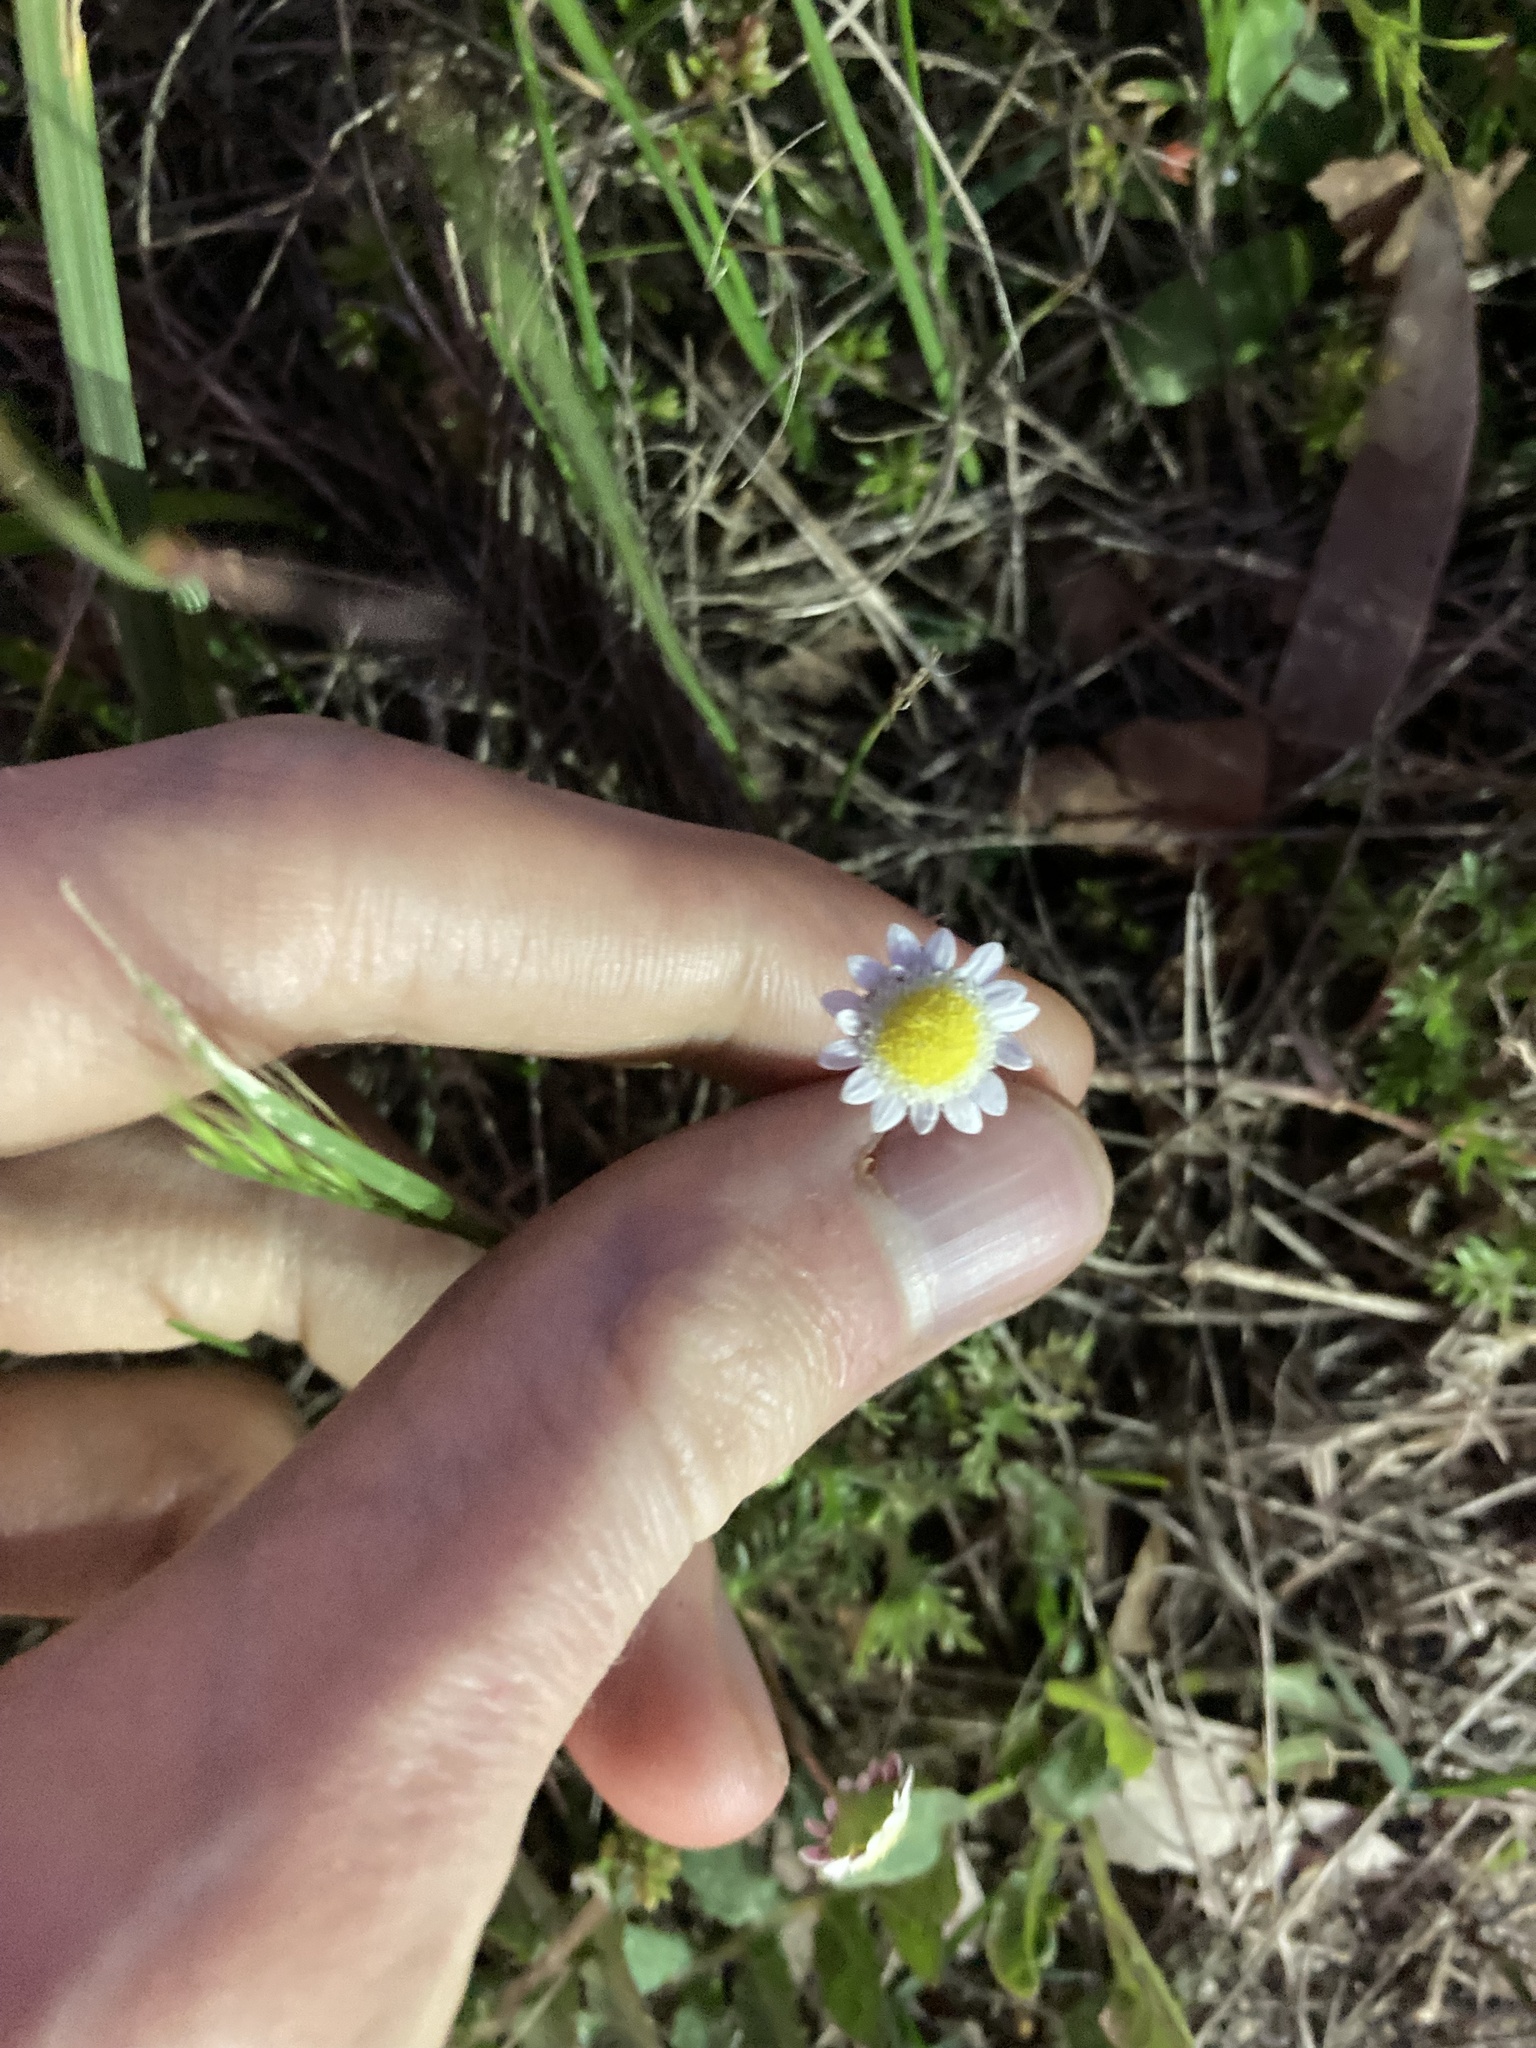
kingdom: Plantae
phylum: Tracheophyta
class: Magnoliopsida
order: Asterales
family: Asteraceae
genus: Cotula
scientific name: Cotula turbinata
